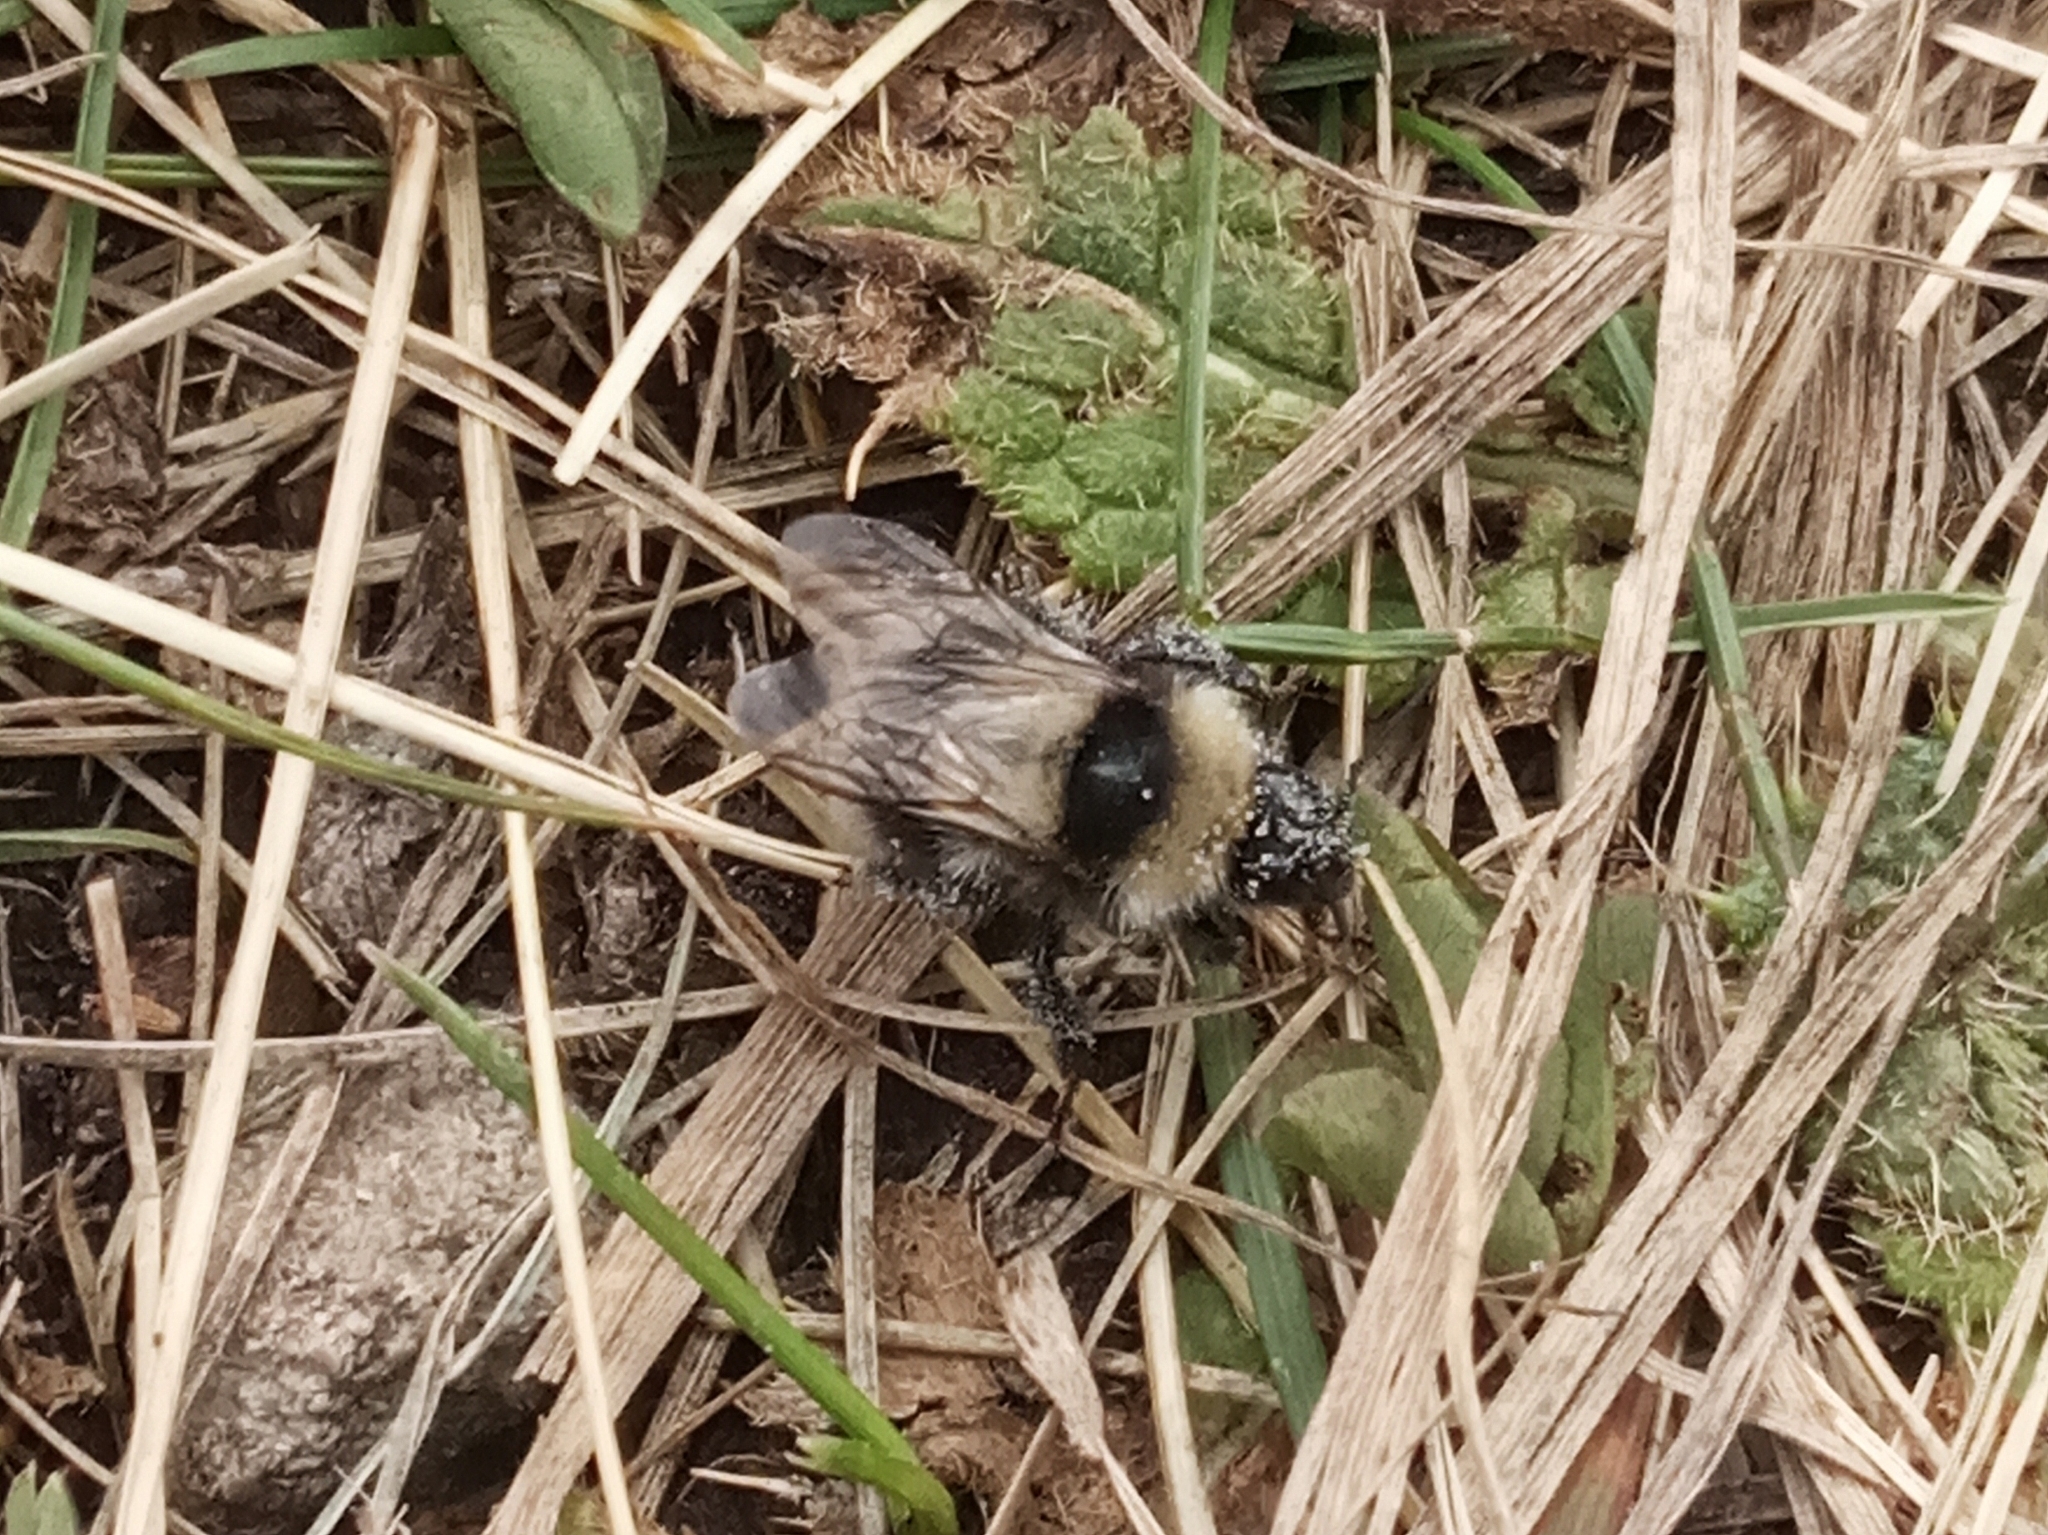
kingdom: Animalia
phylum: Arthropoda
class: Insecta
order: Hymenoptera
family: Apidae
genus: Bombus
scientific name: Bombus
